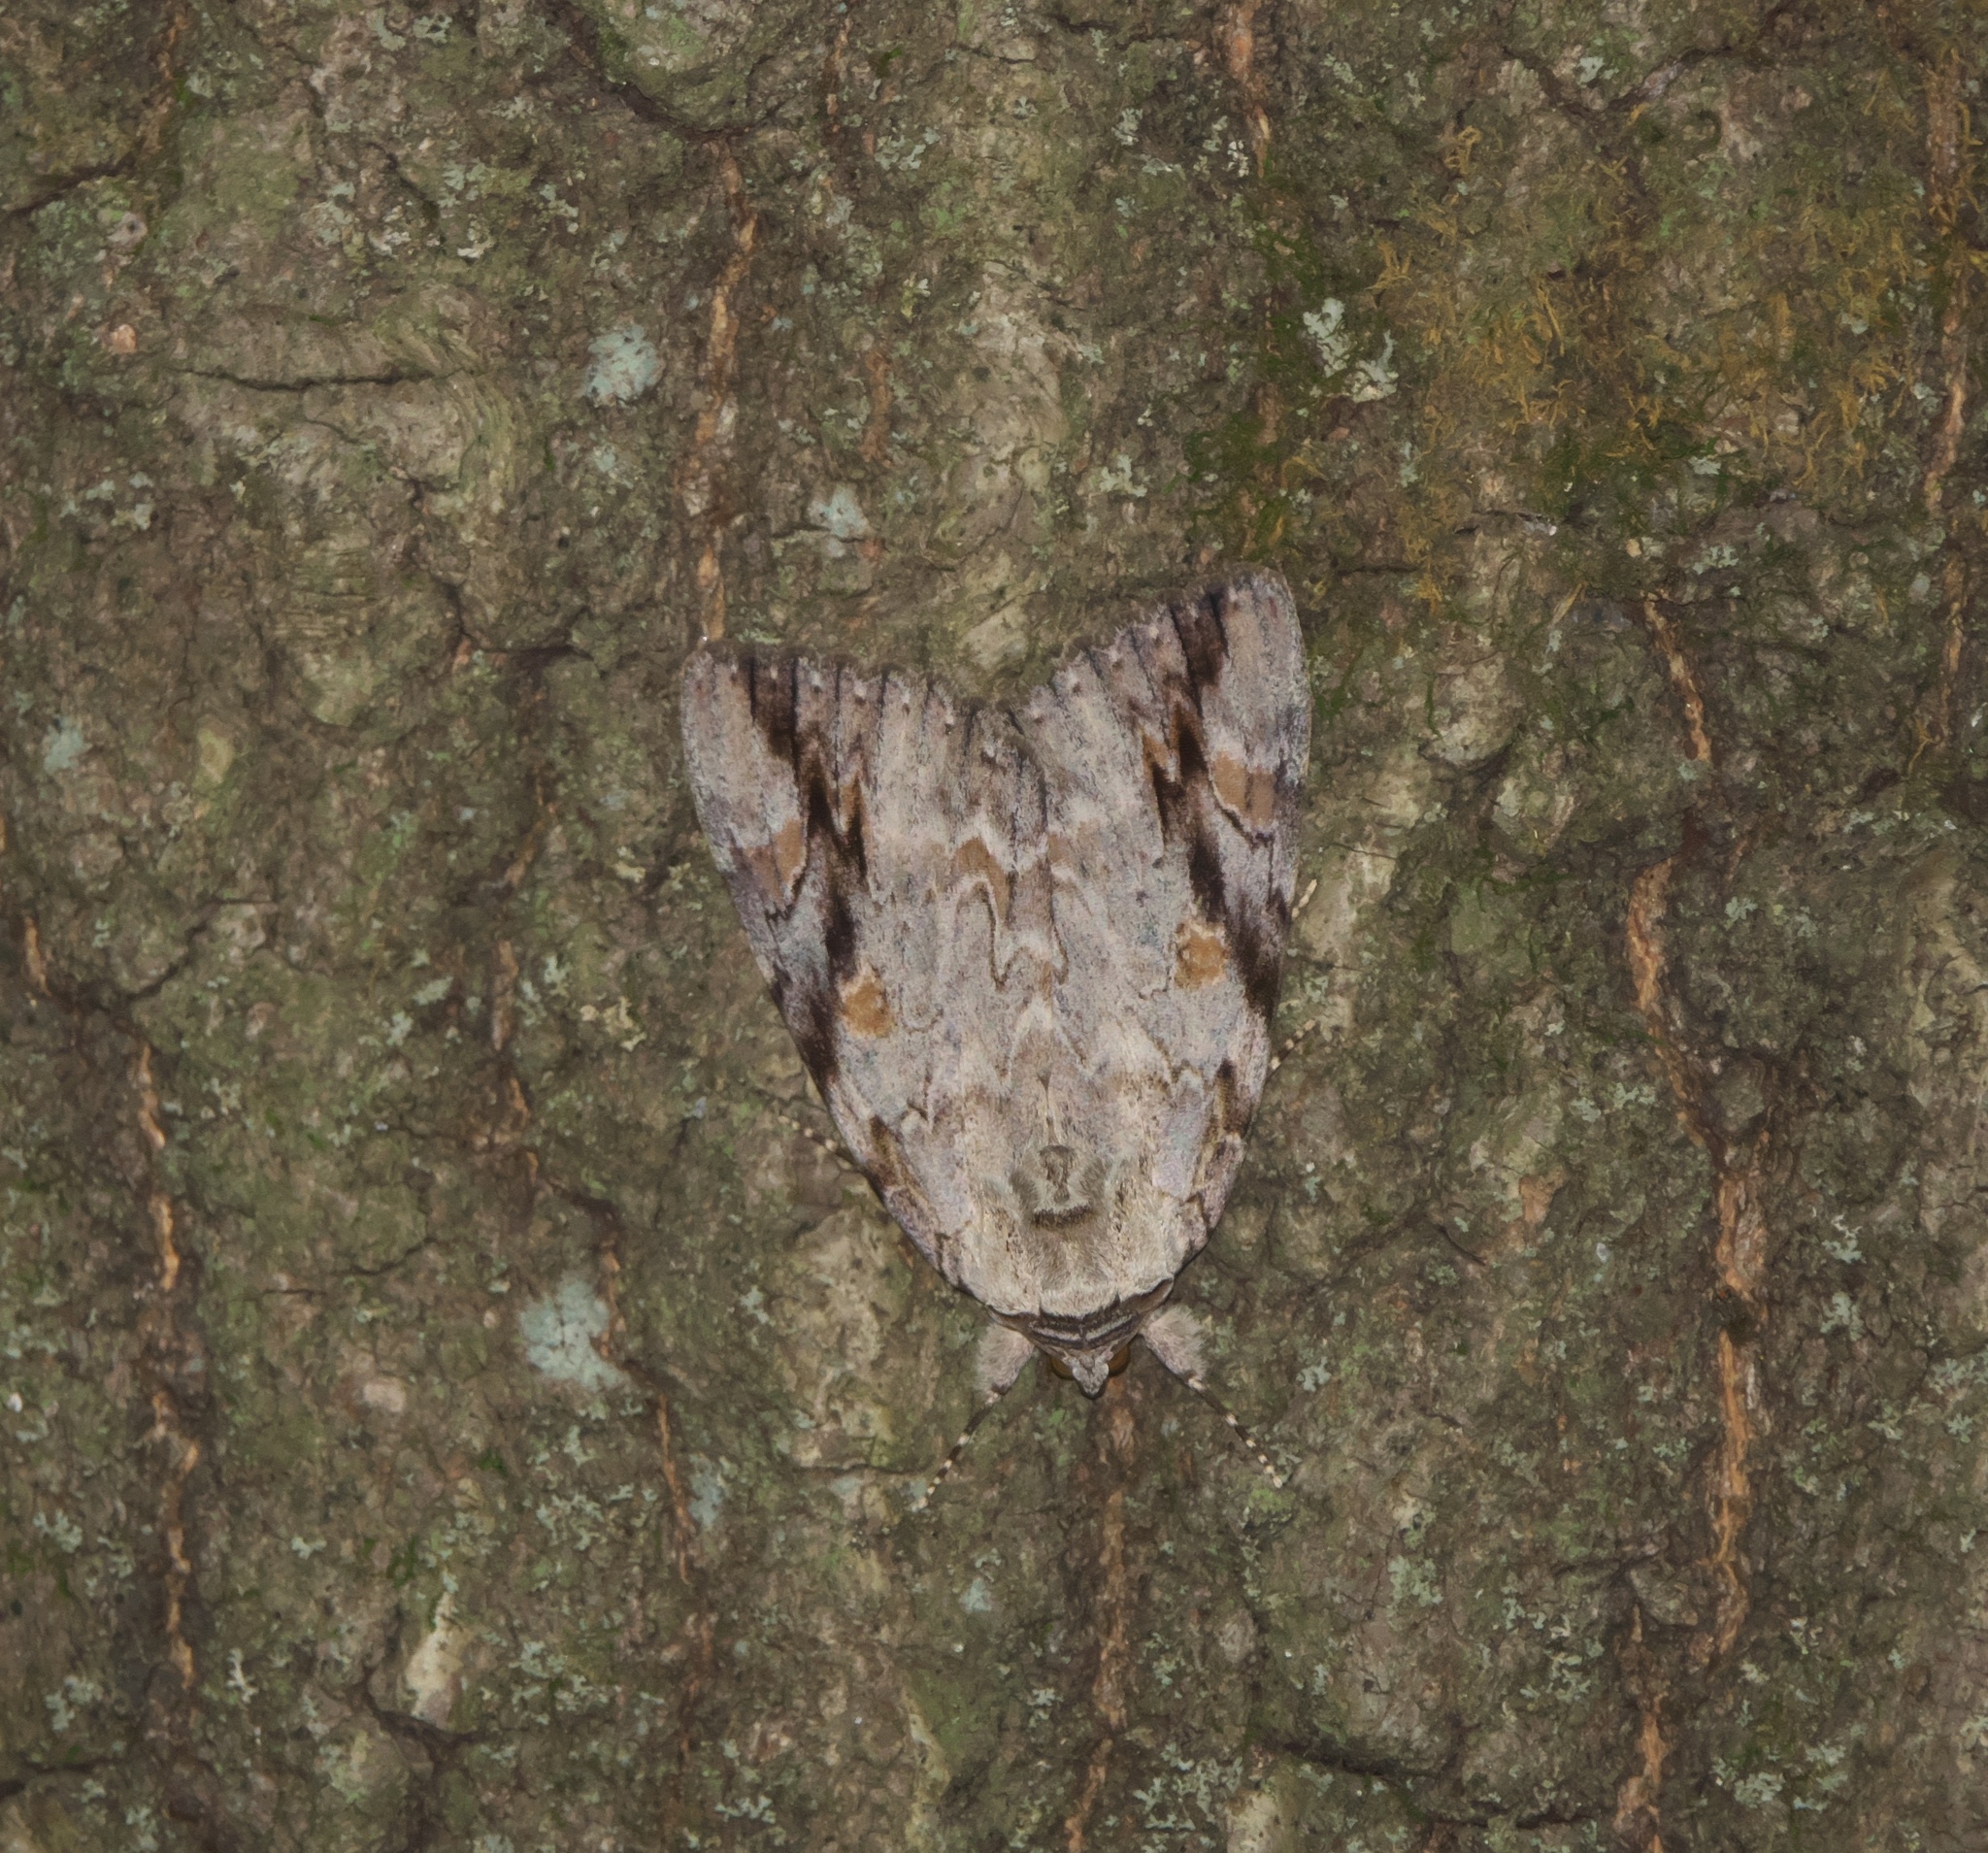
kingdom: Animalia
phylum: Arthropoda
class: Insecta
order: Lepidoptera
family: Erebidae
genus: Catocala
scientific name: Catocala maestosa
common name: Sad underwing
